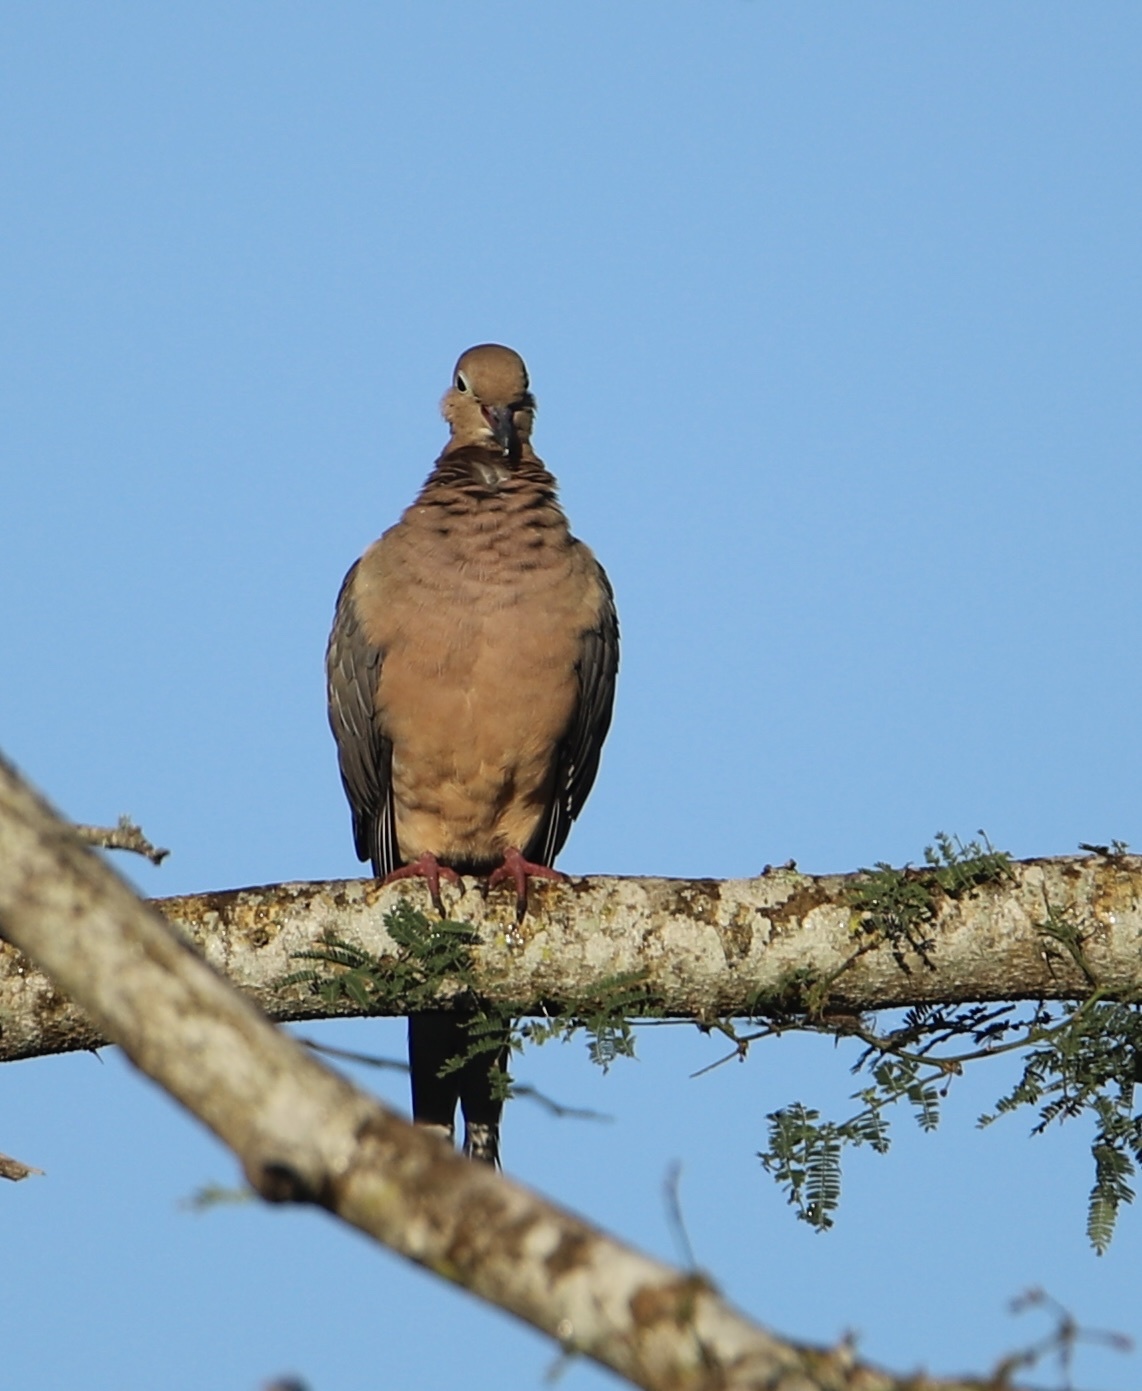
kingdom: Animalia
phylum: Chordata
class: Aves
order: Columbiformes
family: Columbidae
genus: Zenaida
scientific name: Zenaida macroura
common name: Mourning dove
